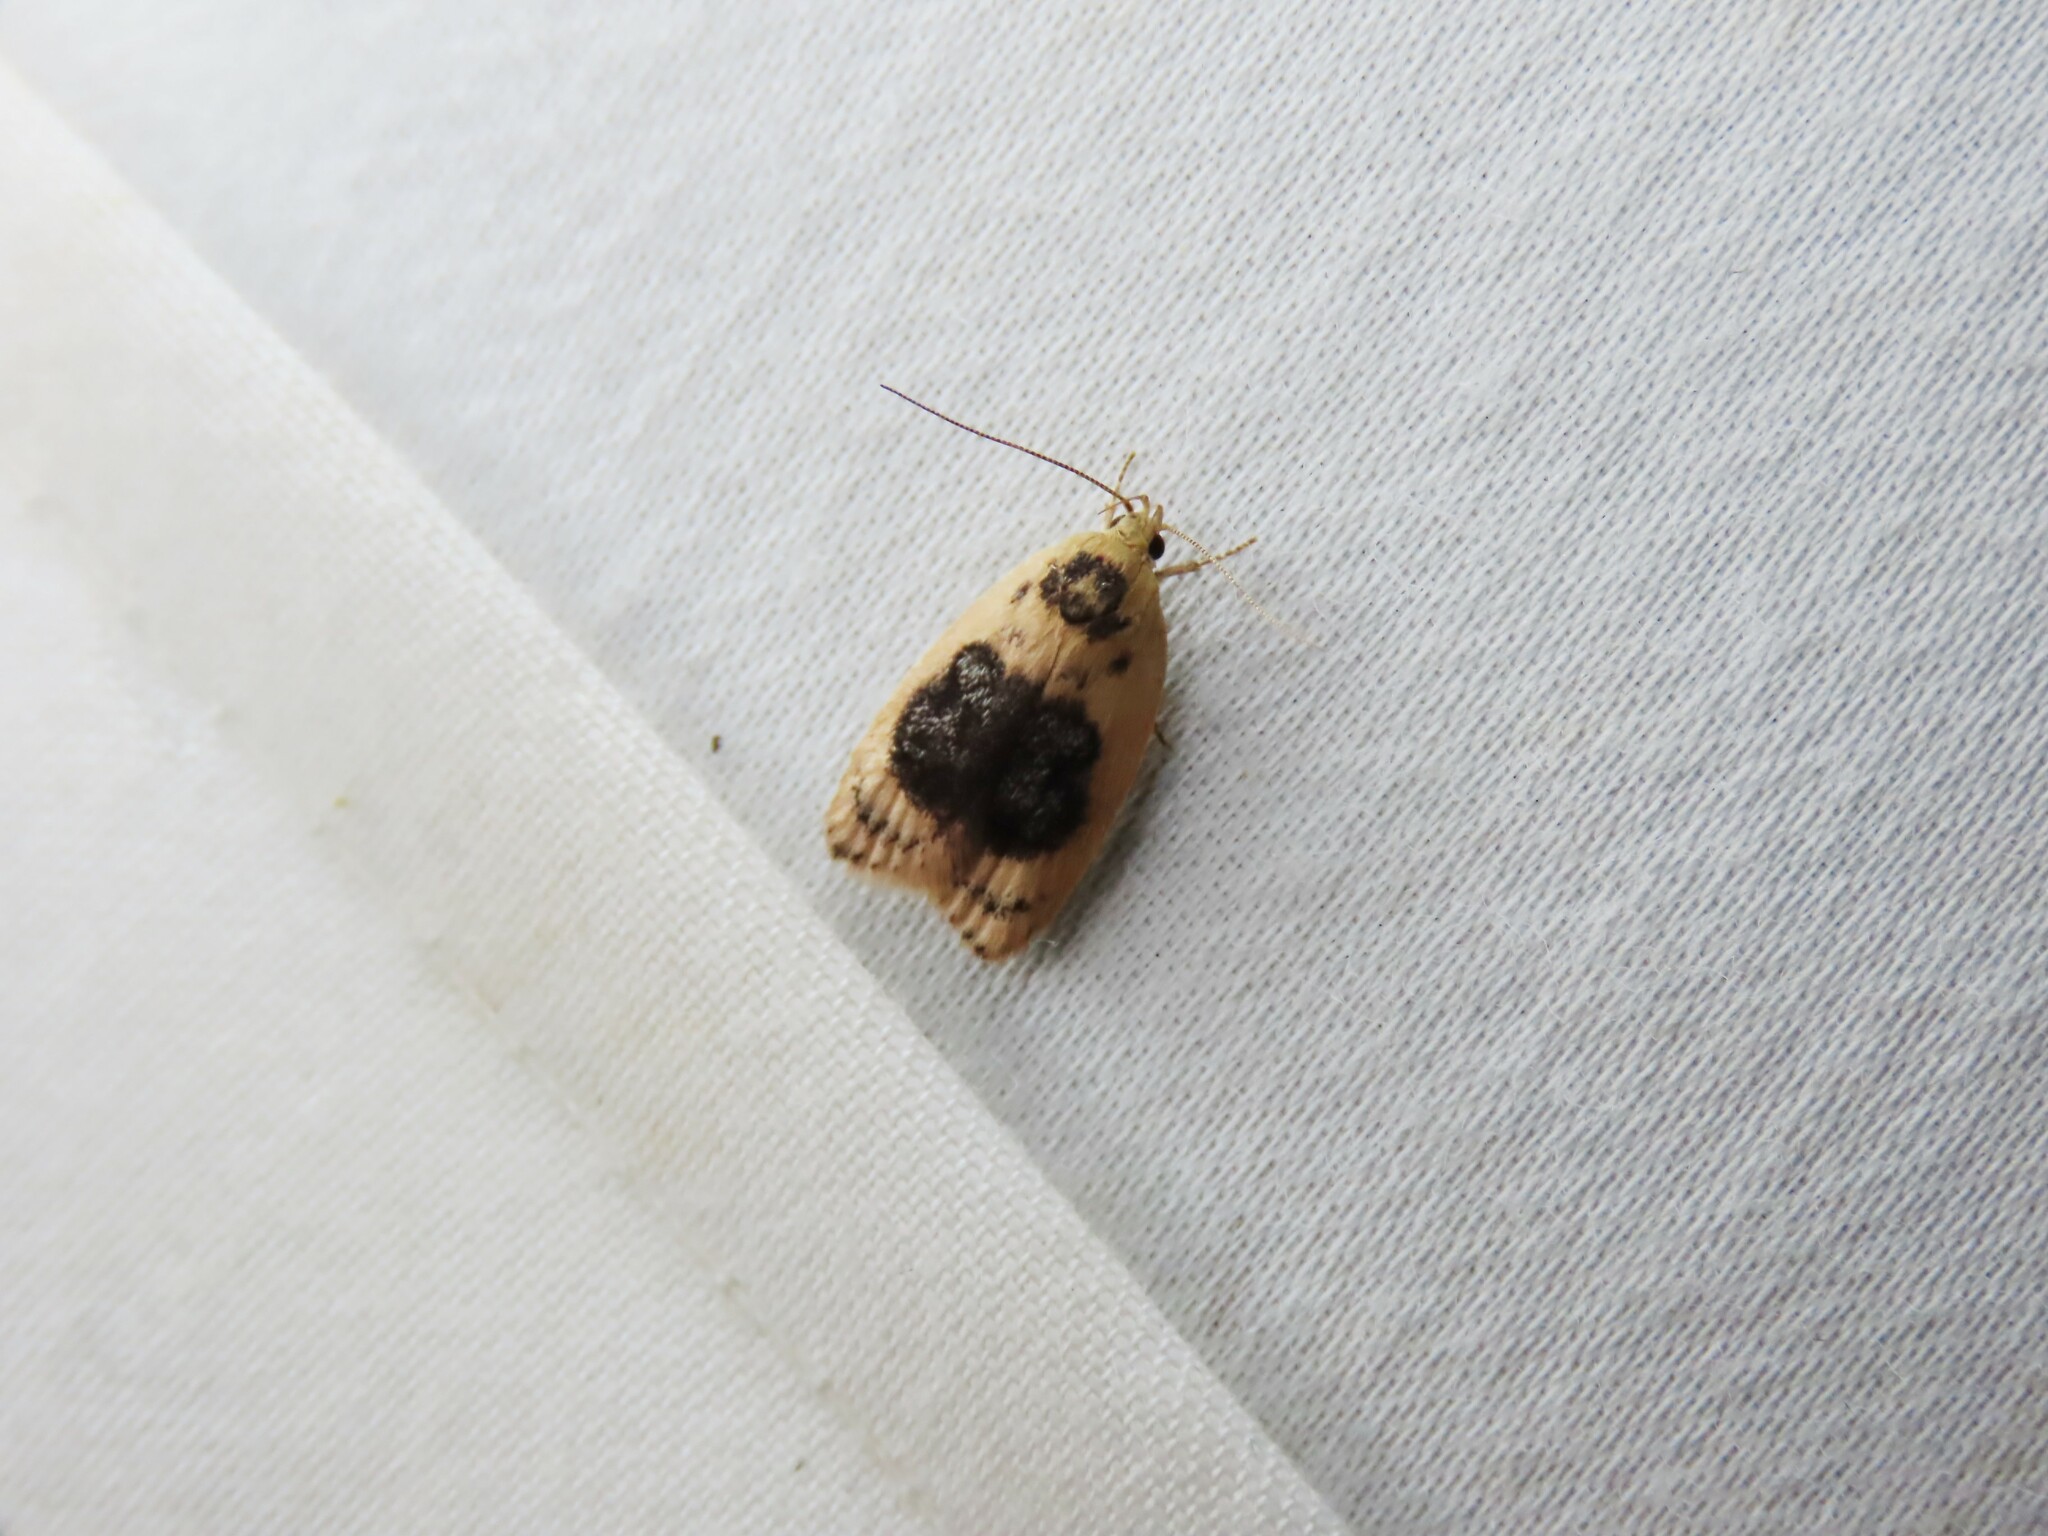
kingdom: Animalia
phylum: Arthropoda
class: Insecta
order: Lepidoptera
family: Oecophoridae
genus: Garrha
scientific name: Garrha ocellifera
